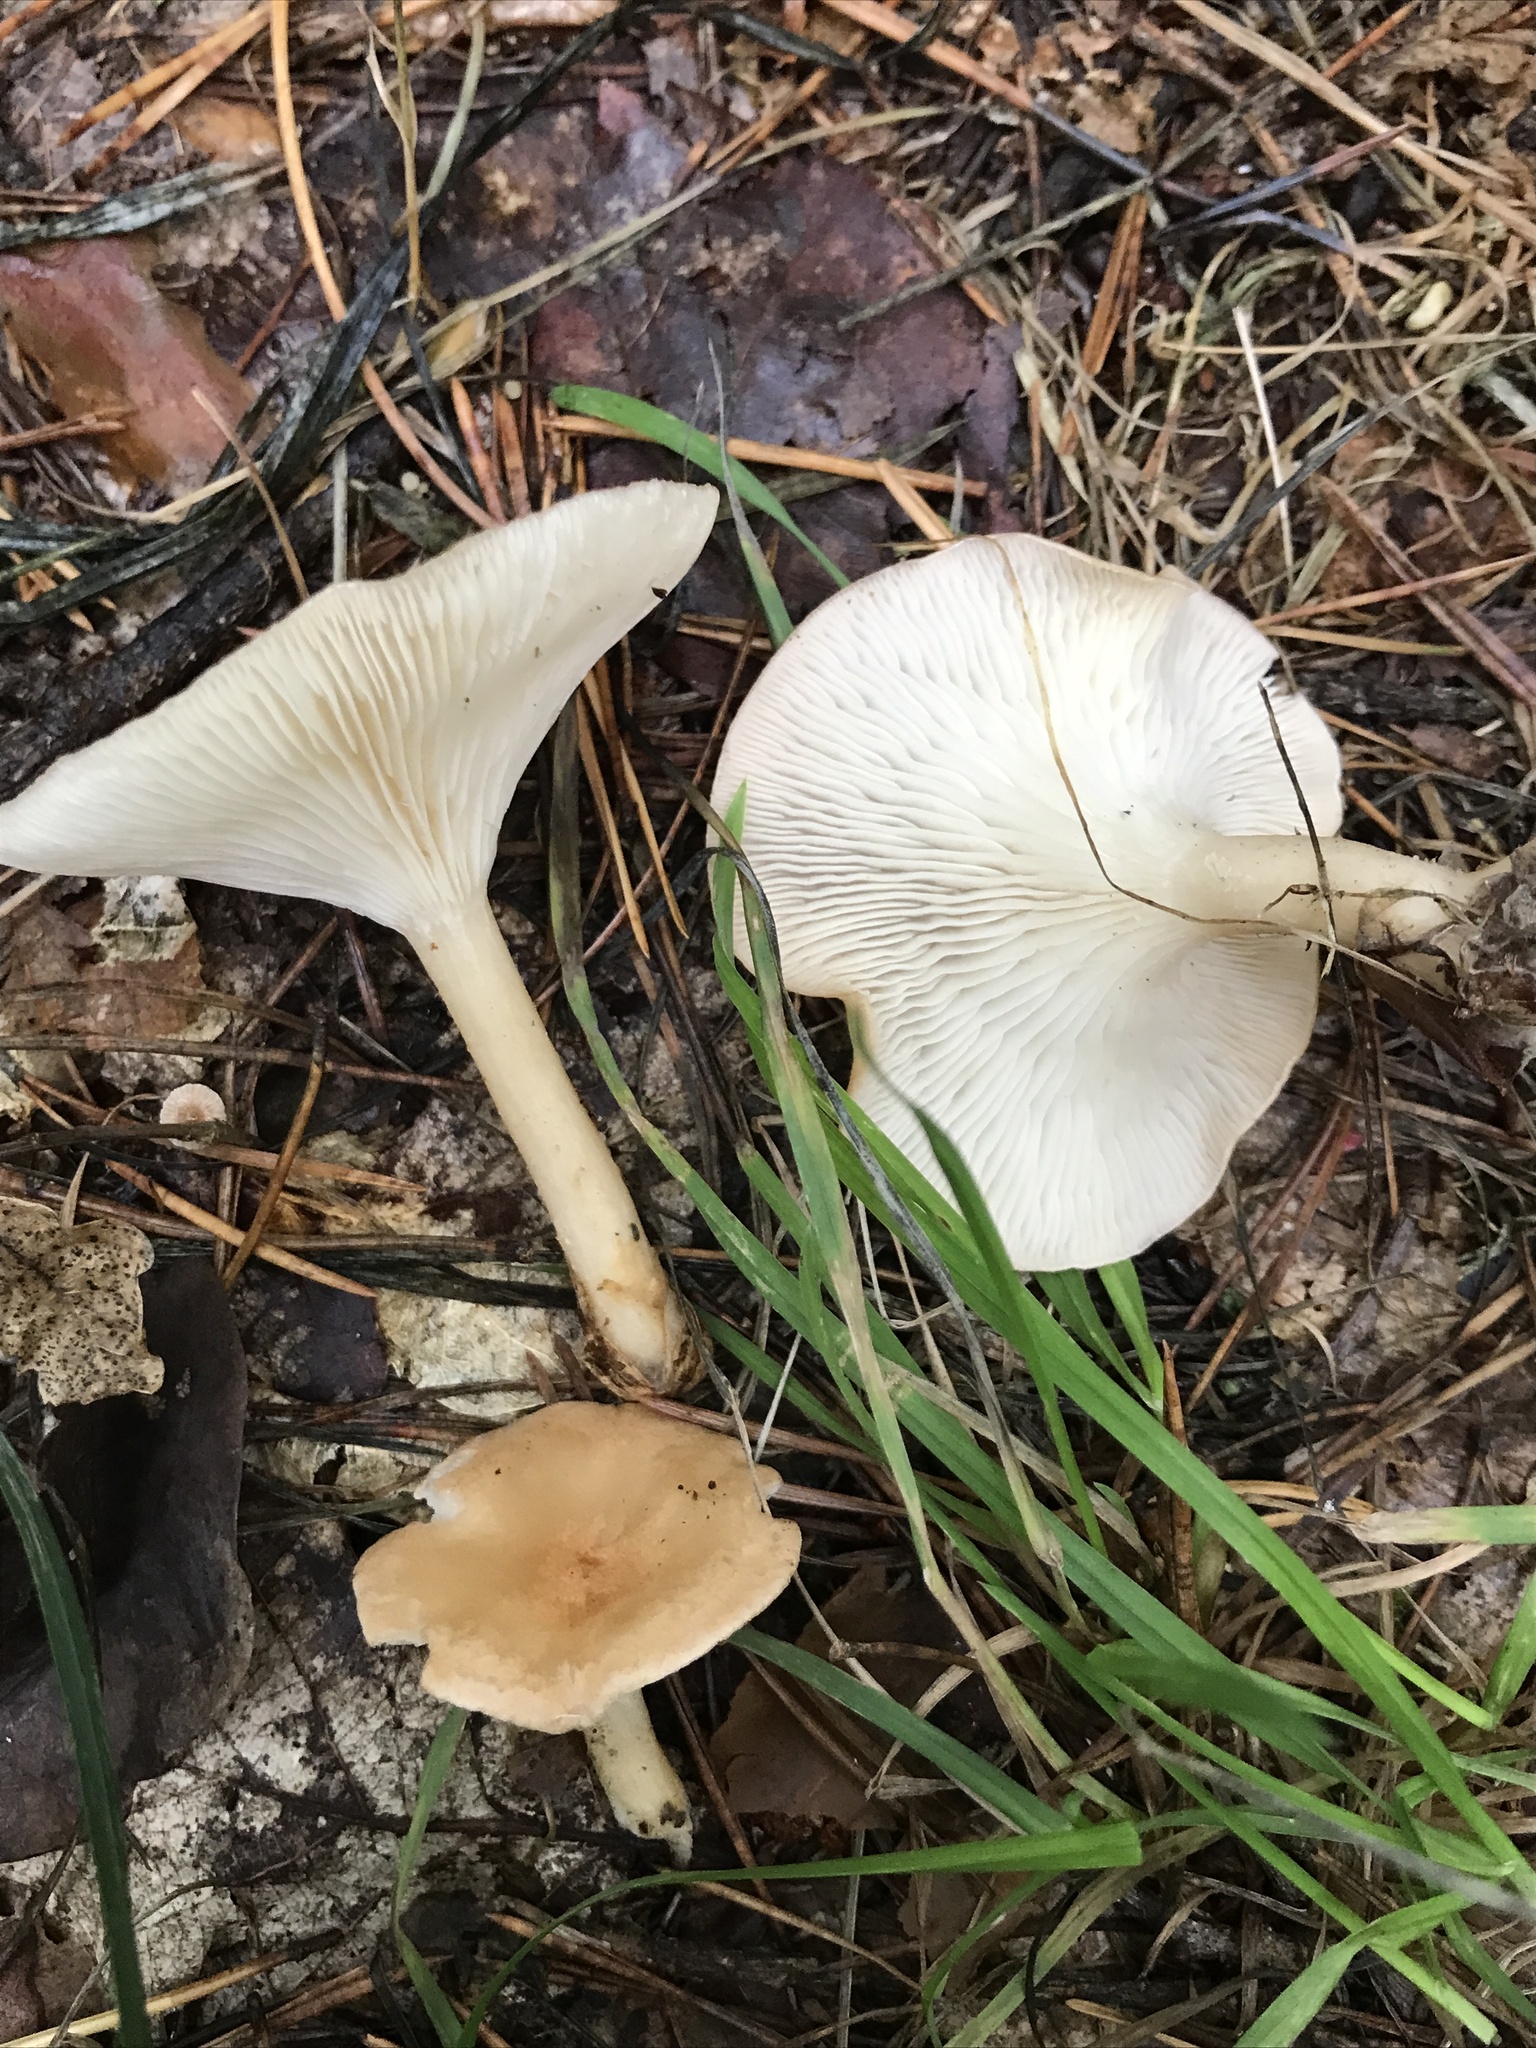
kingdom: Fungi
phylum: Basidiomycota
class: Agaricomycetes
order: Agaricales
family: Tricholomataceae
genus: Infundibulicybe
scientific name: Infundibulicybe gibba
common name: Common funnel
